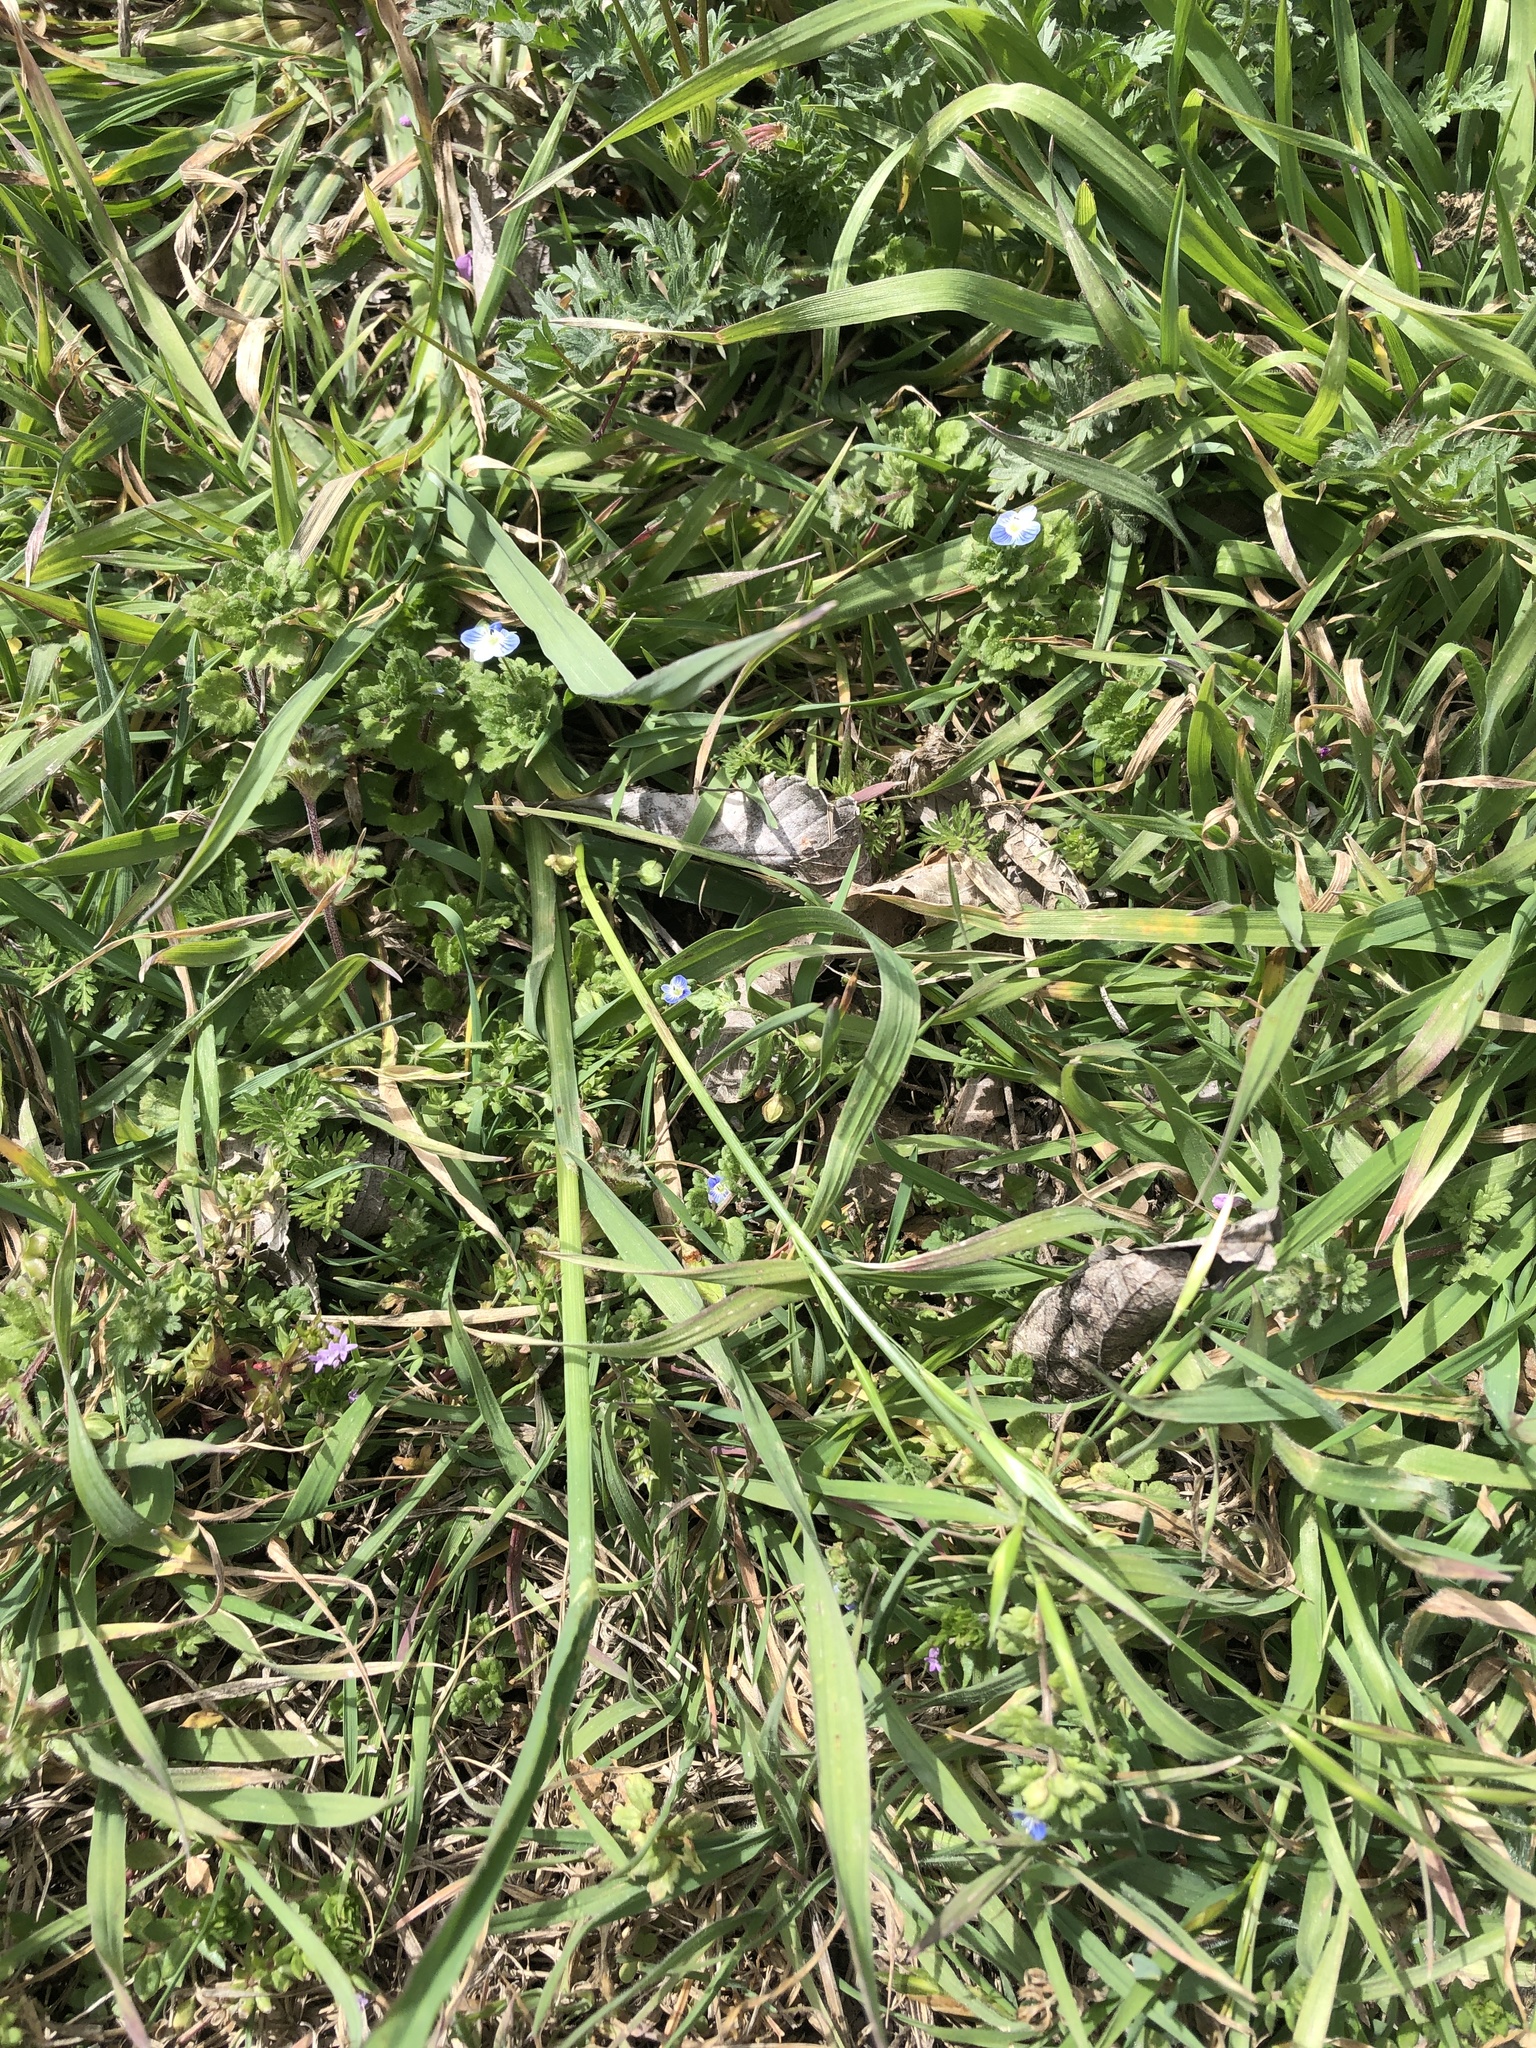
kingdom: Plantae
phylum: Tracheophyta
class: Liliopsida
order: Poales
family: Poaceae
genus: Bromus
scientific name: Bromus catharticus
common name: Rescuegrass
